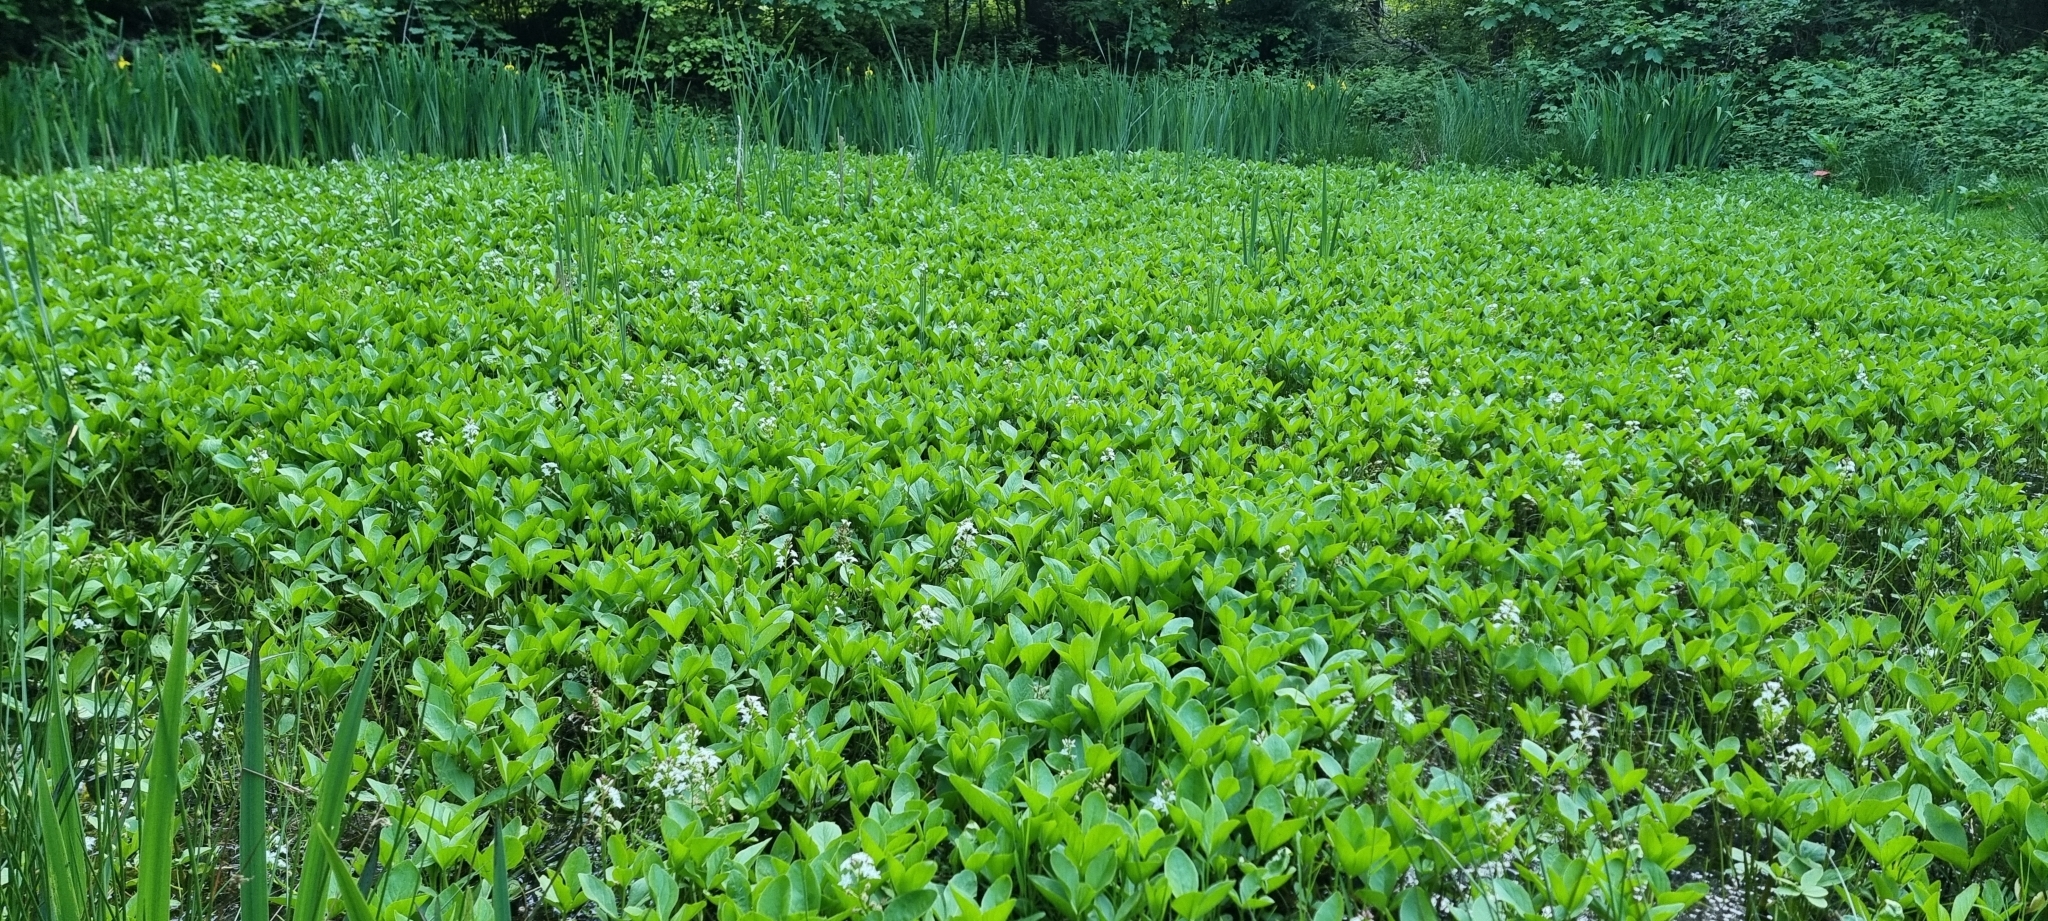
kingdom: Plantae
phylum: Tracheophyta
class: Magnoliopsida
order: Asterales
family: Menyanthaceae
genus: Menyanthes
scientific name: Menyanthes trifoliata
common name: Bogbean
